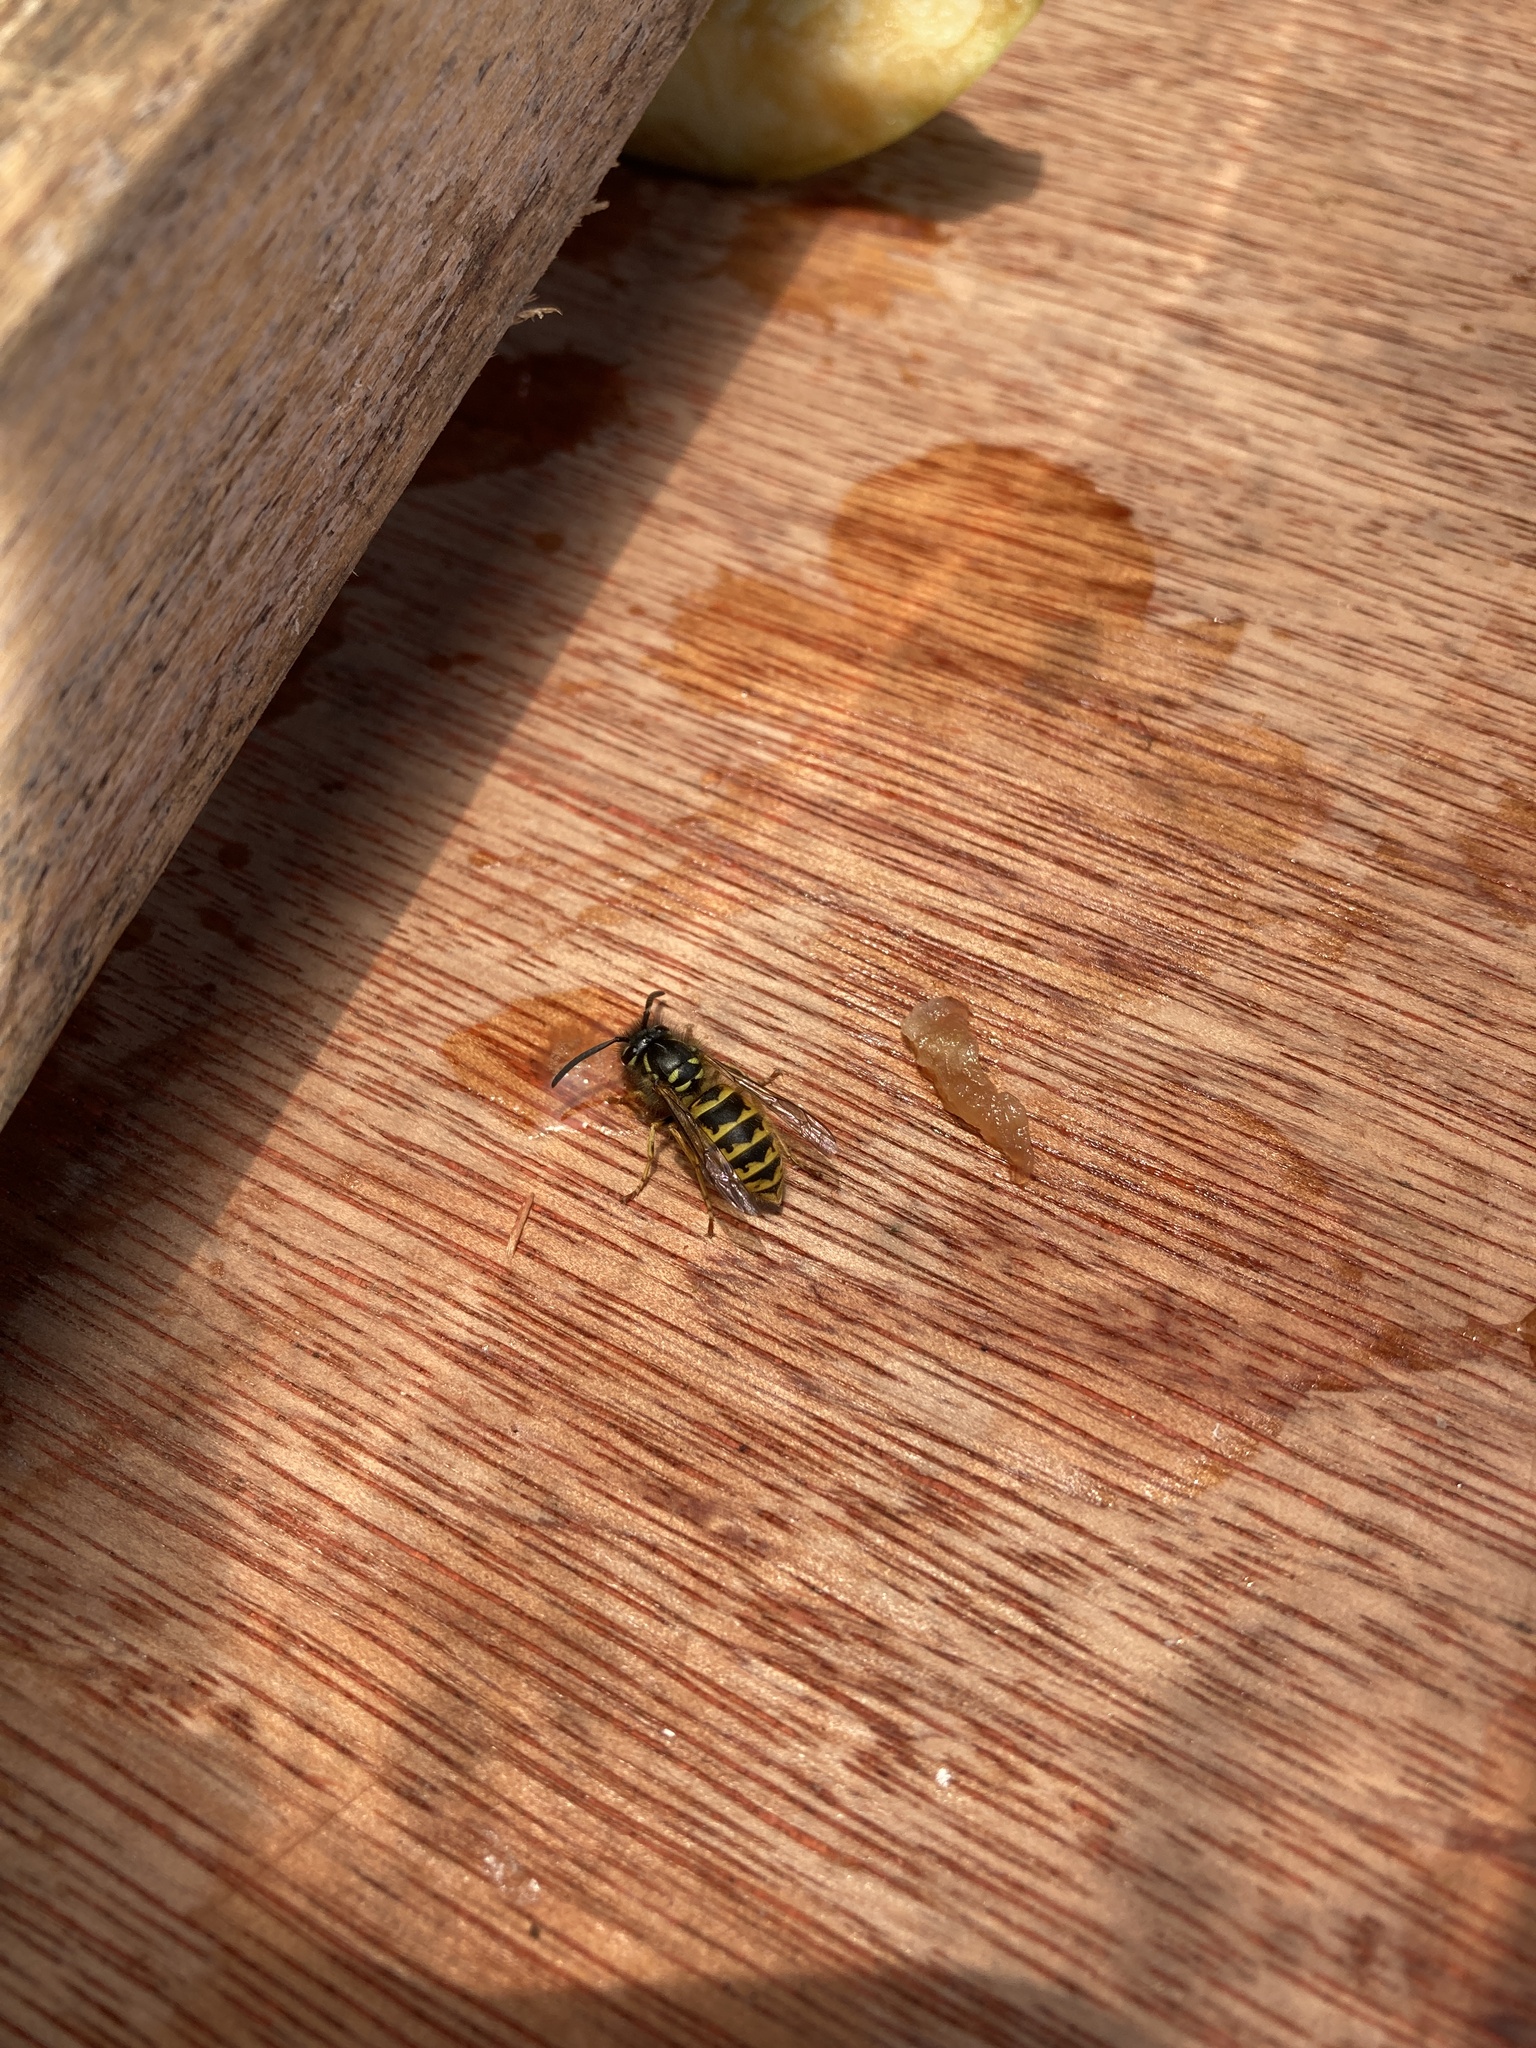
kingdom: Animalia
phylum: Arthropoda
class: Insecta
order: Hymenoptera
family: Vespidae
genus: Vespula
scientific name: Vespula vulgaris
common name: Common wasp
